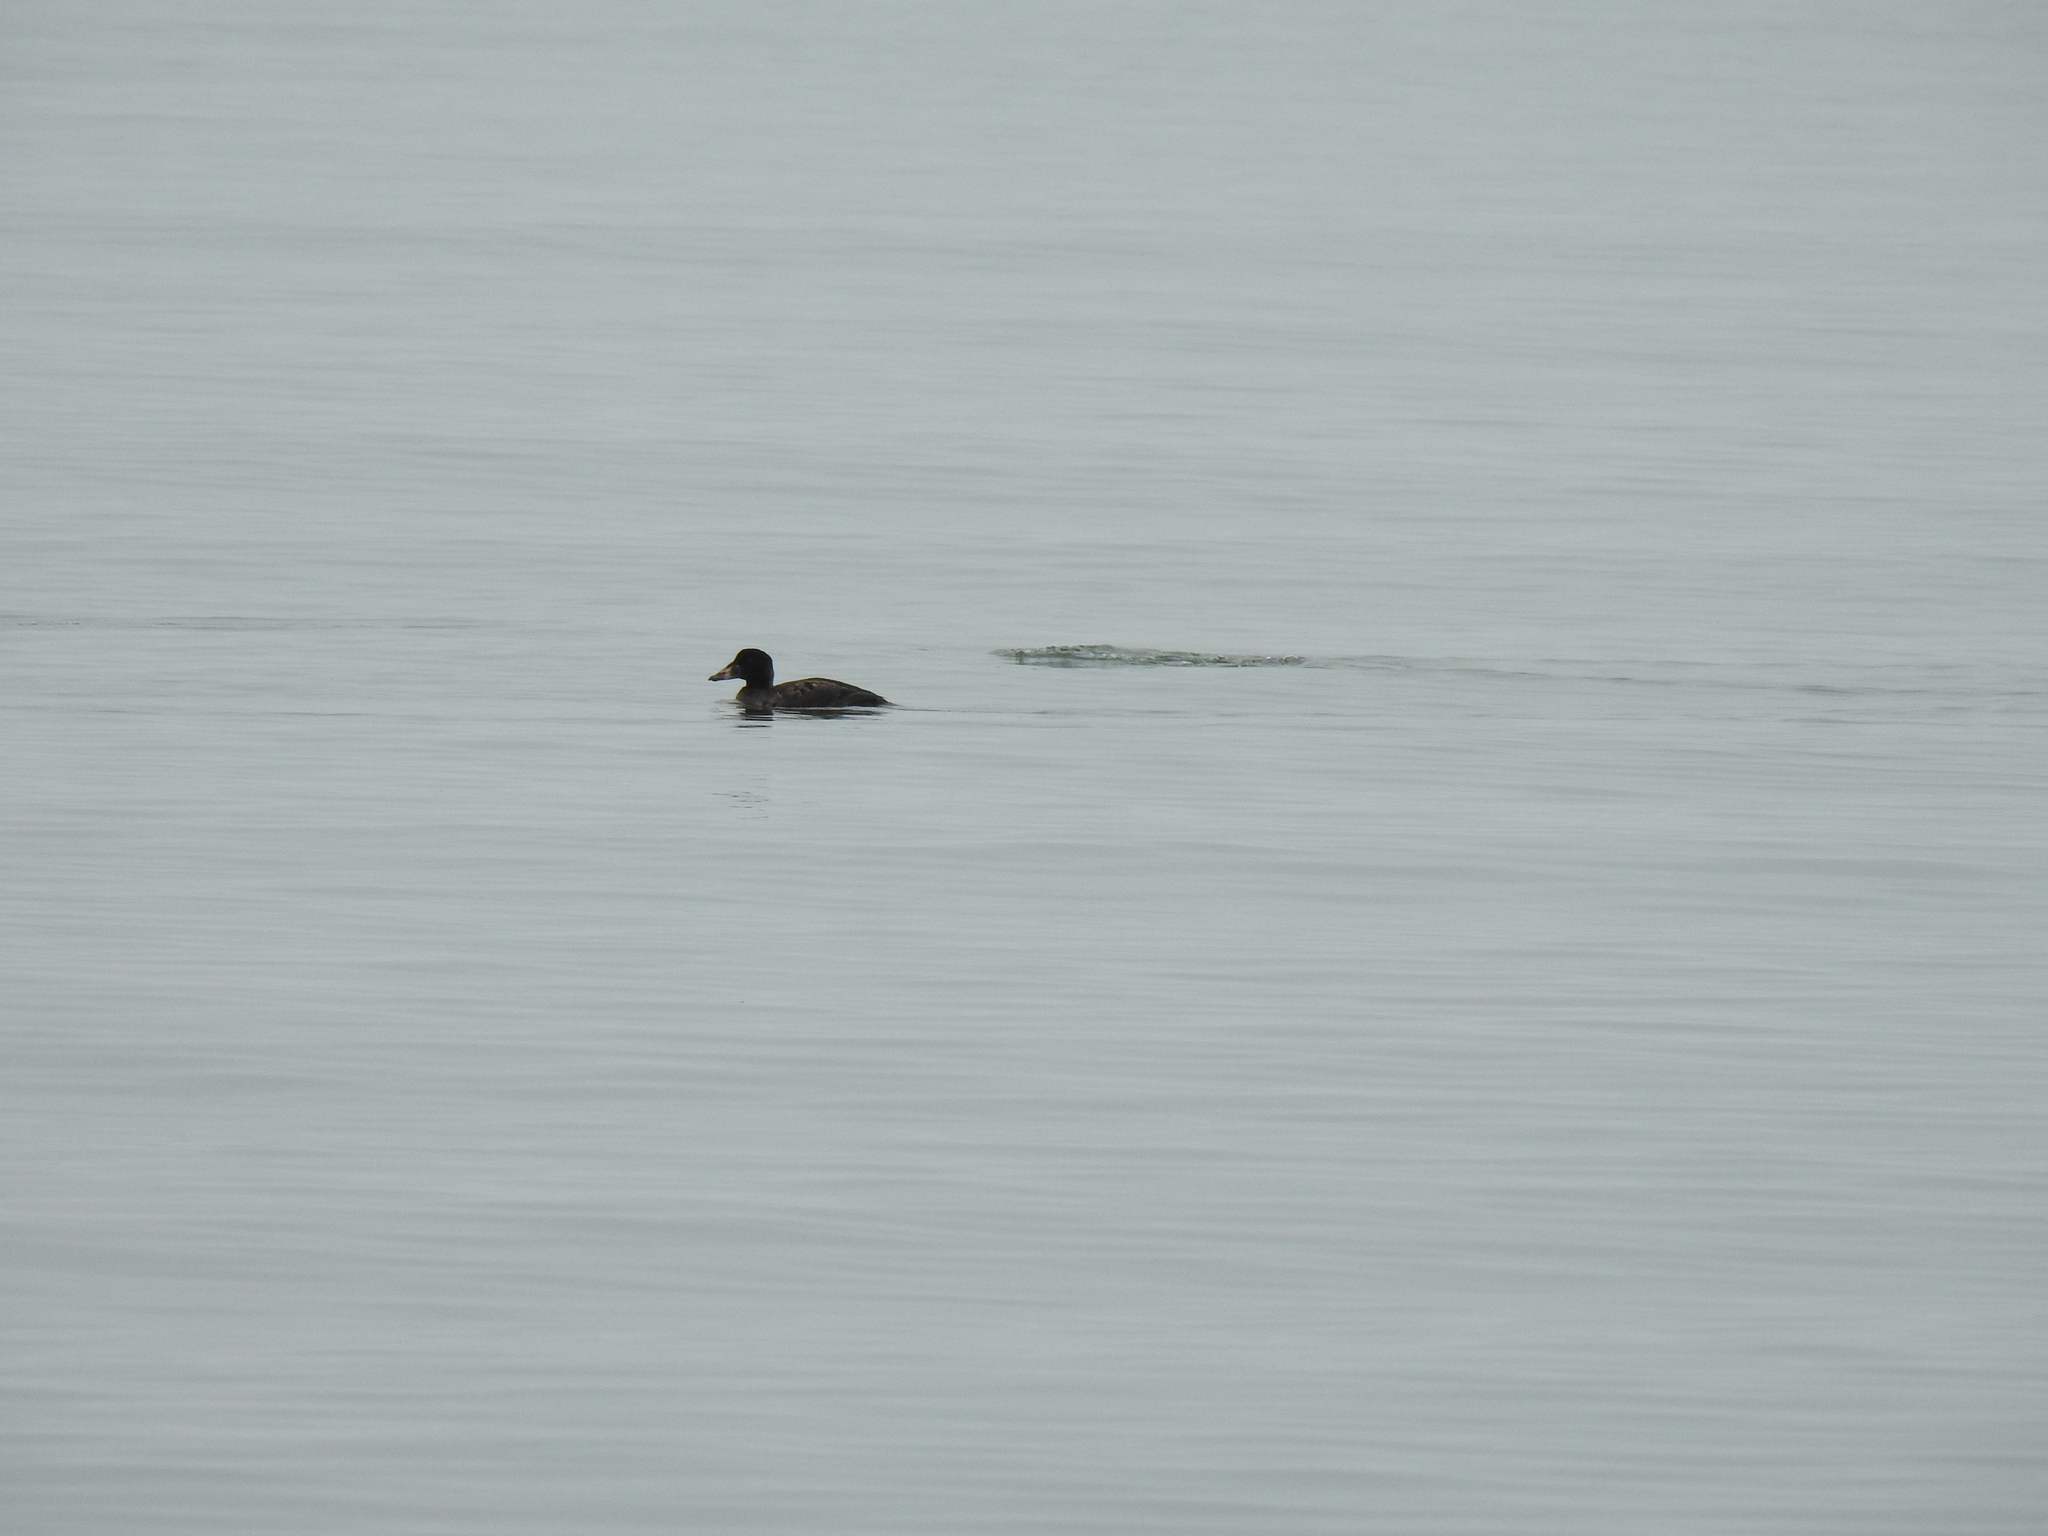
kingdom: Animalia
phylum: Chordata
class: Aves
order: Anseriformes
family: Anatidae
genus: Melanitta
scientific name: Melanitta perspicillata
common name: Surf scoter
